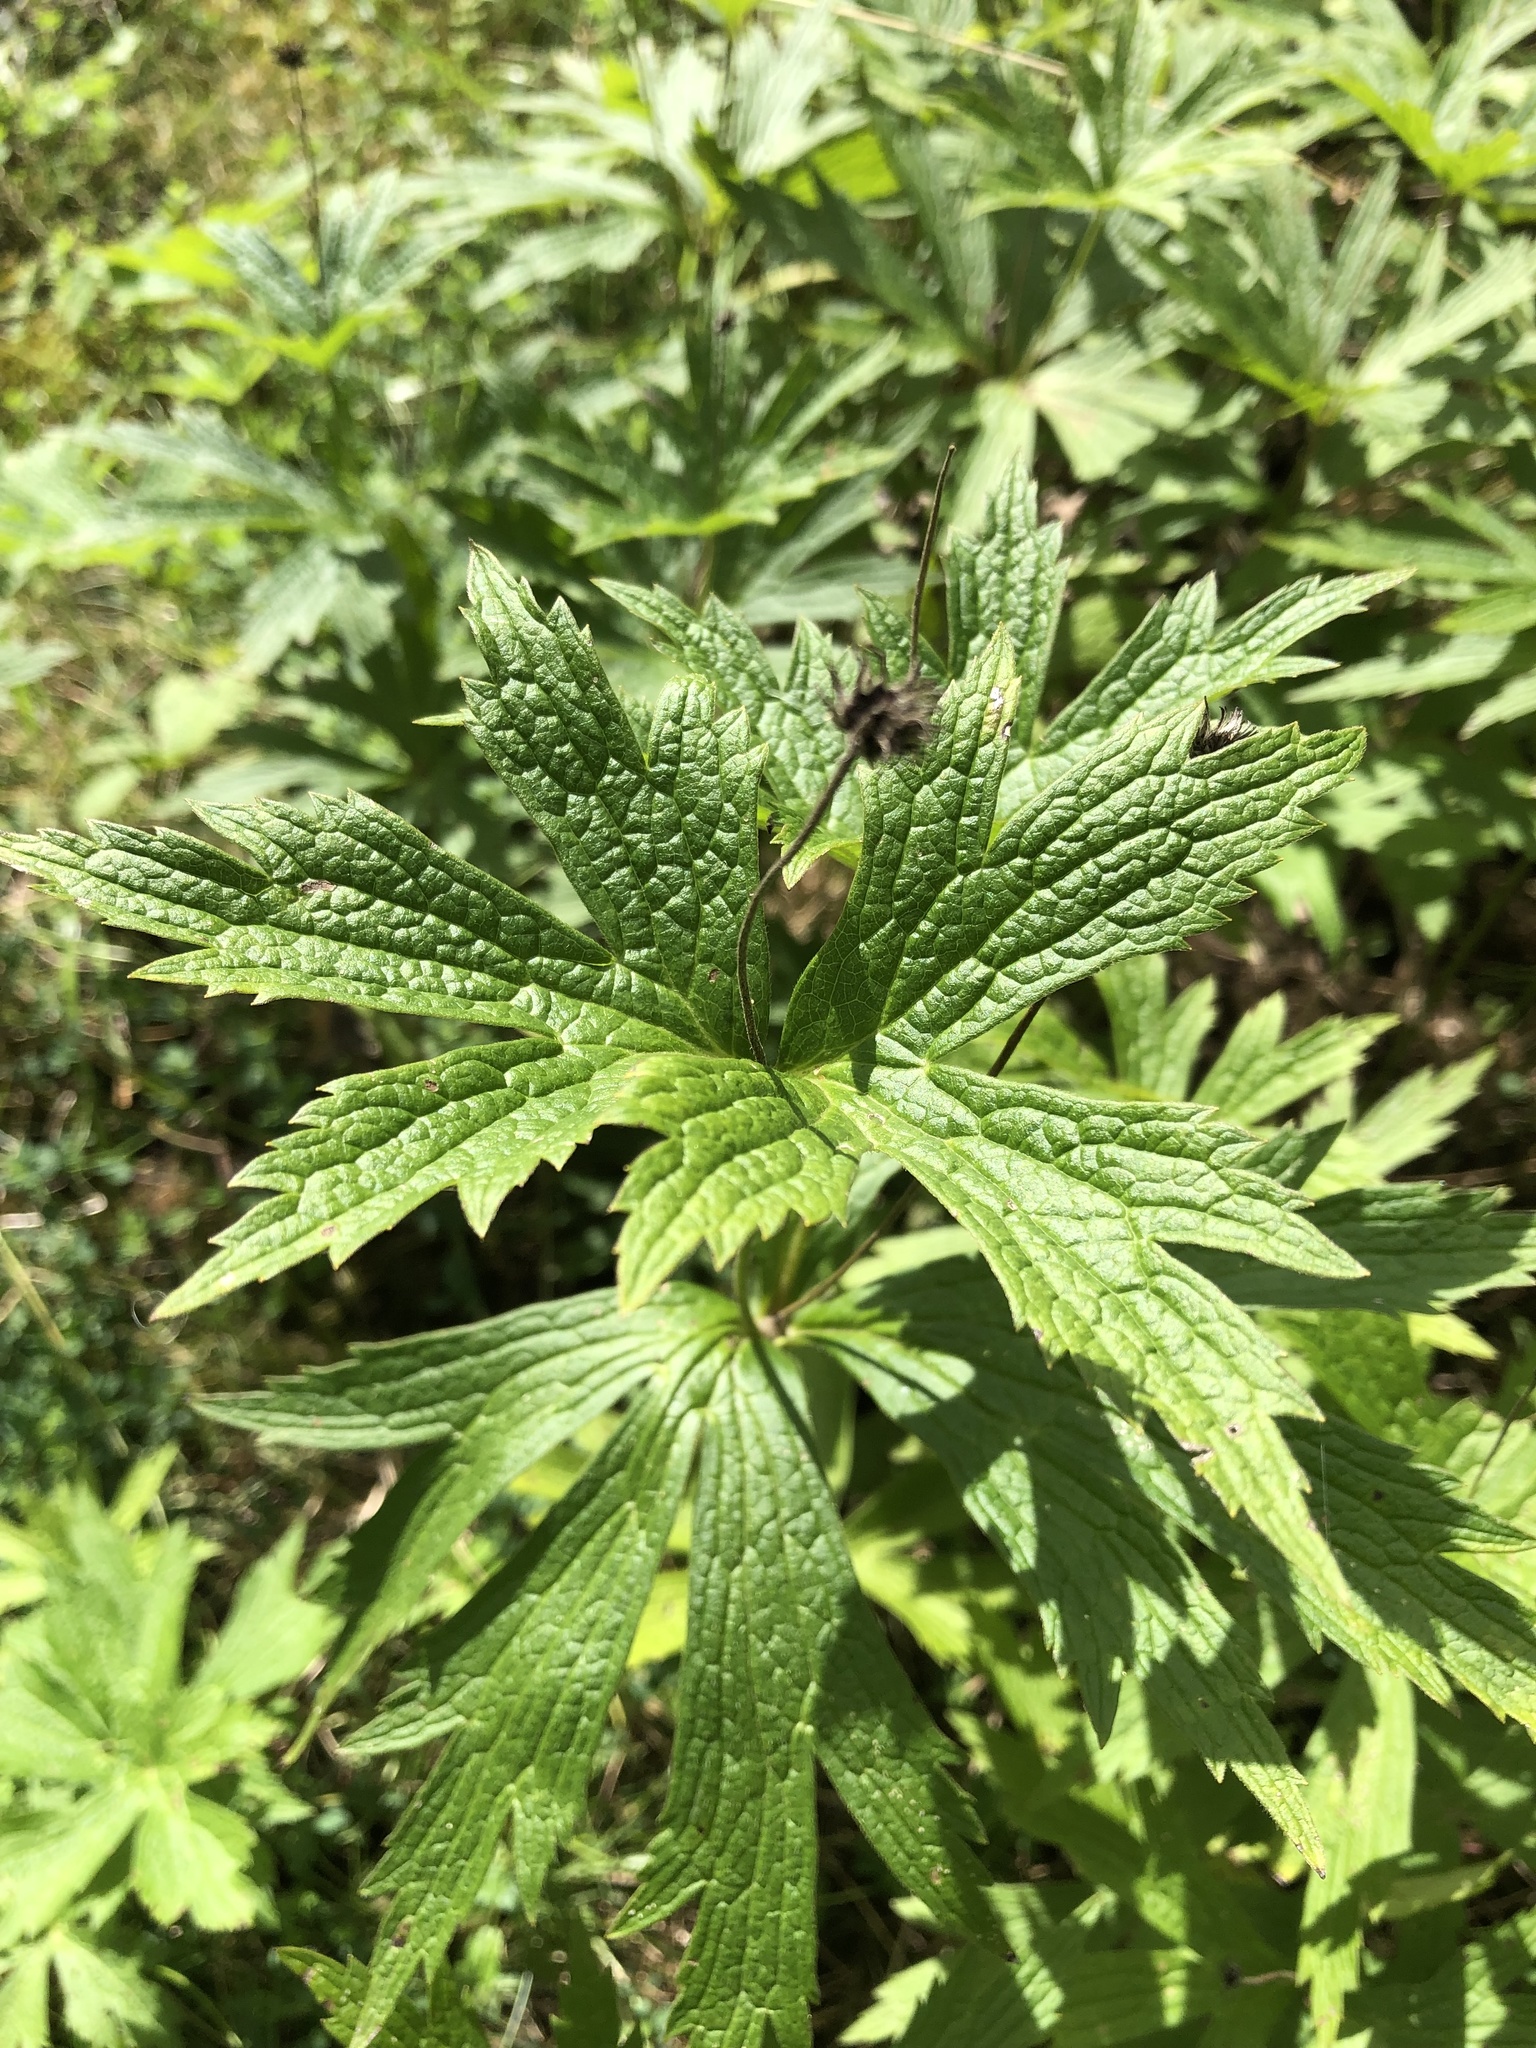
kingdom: Plantae
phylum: Tracheophyta
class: Magnoliopsida
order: Ranunculales
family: Ranunculaceae
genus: Anemonastrum
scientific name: Anemonastrum canadense
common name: Canada anemone
